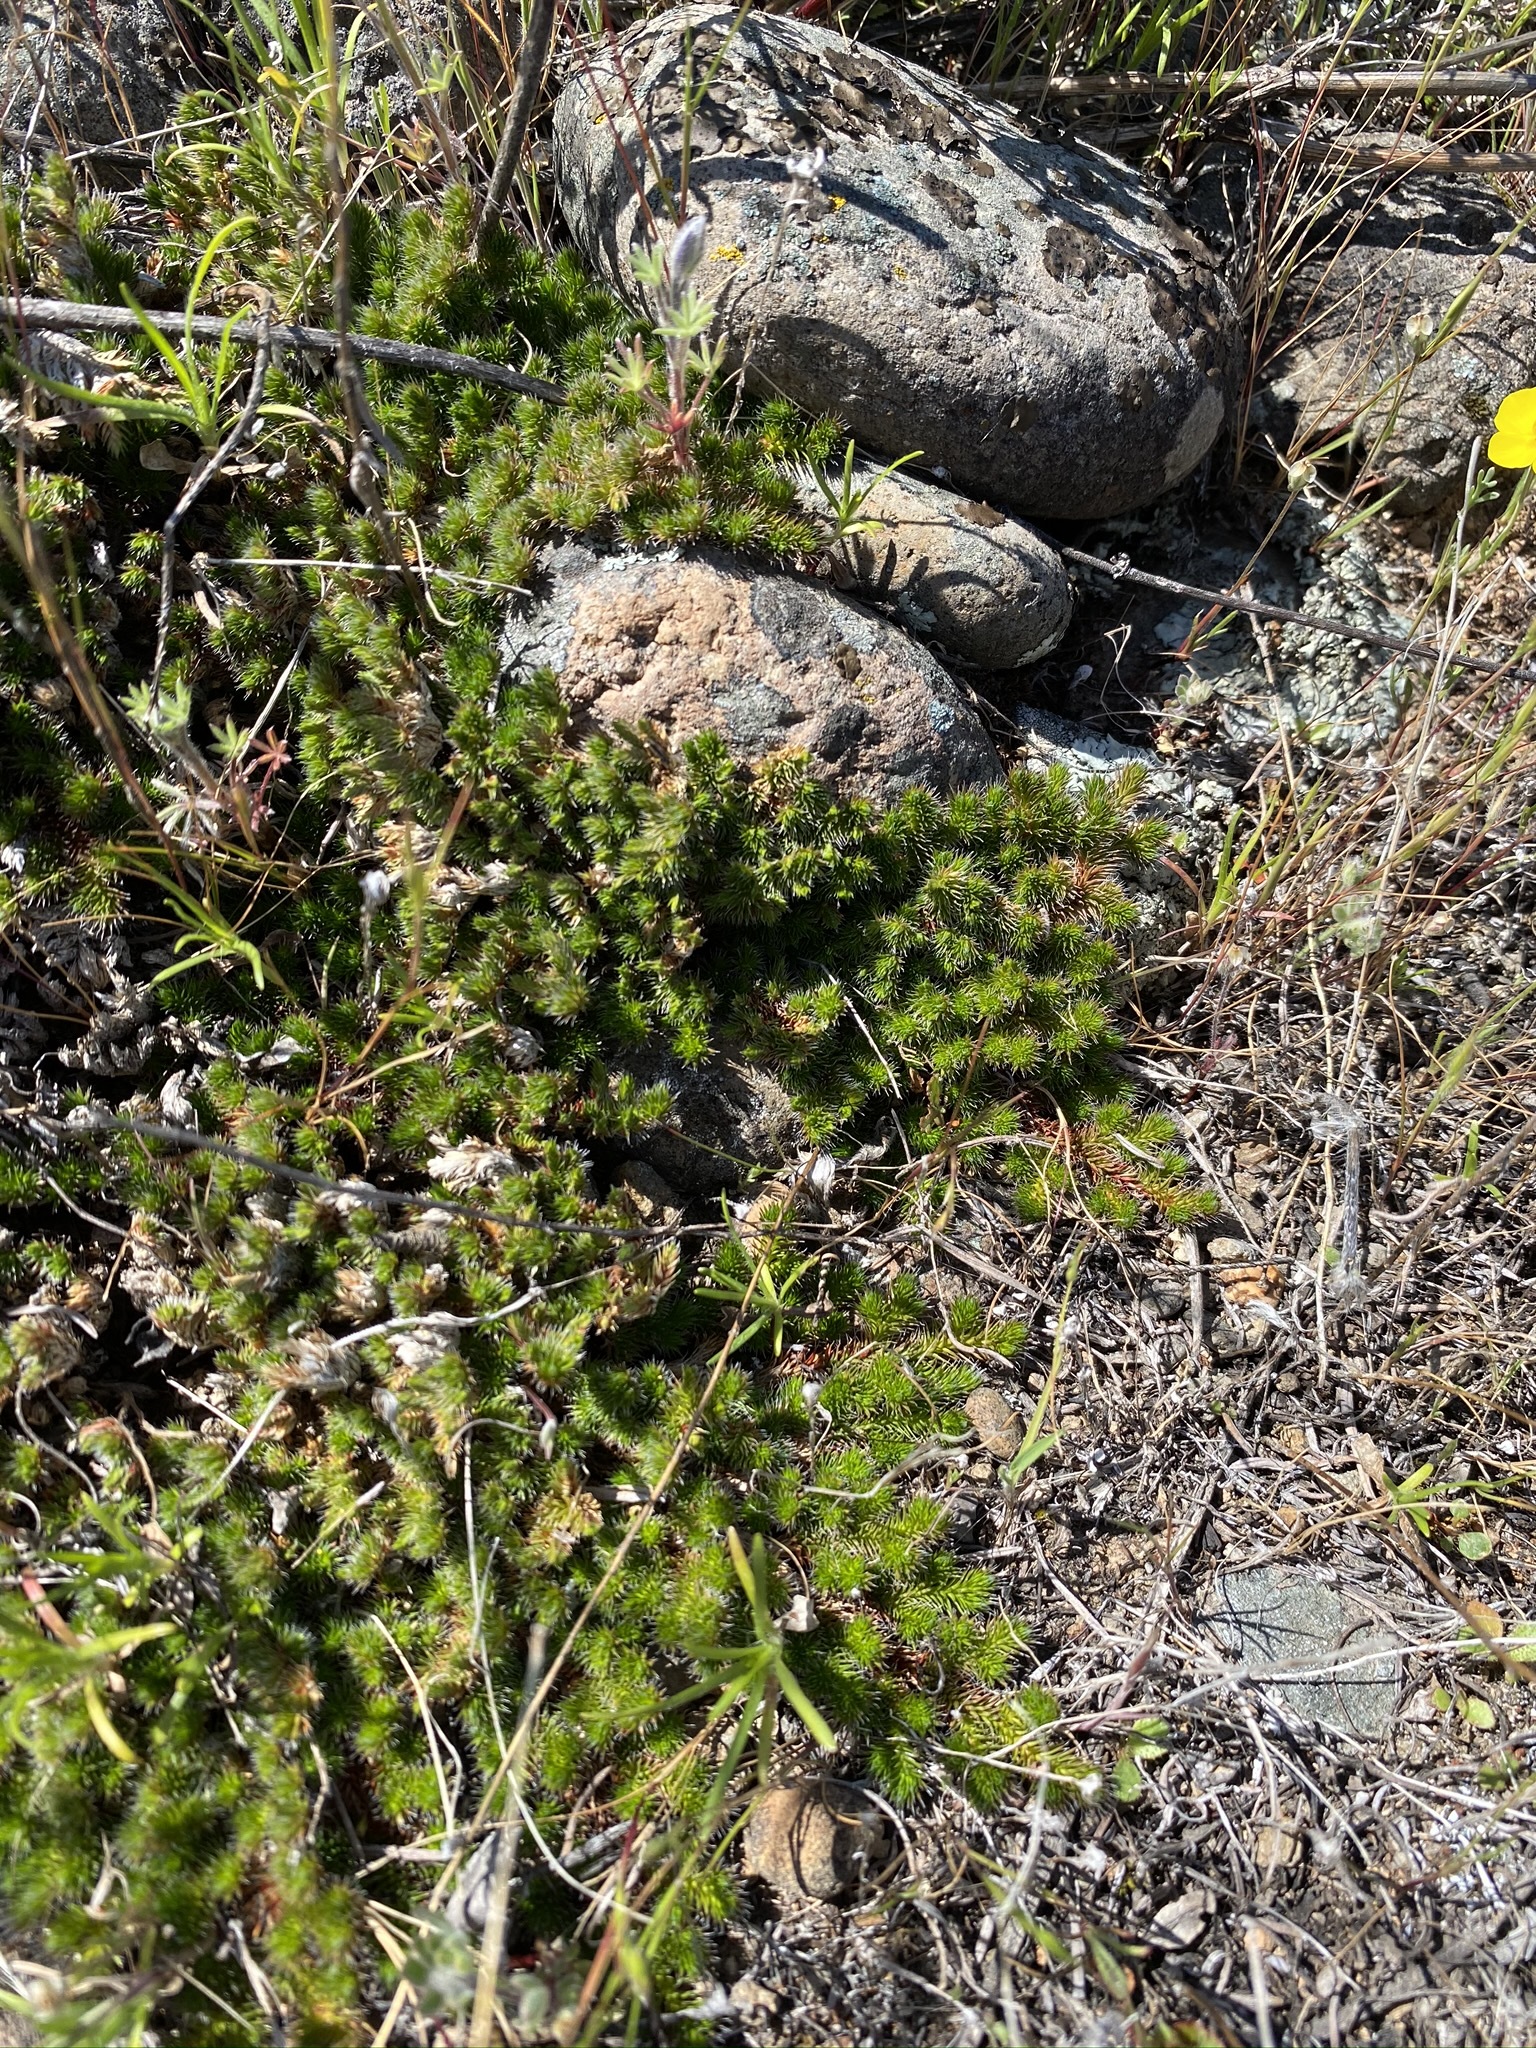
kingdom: Plantae
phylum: Tracheophyta
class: Lycopodiopsida
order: Selaginellales
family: Selaginellaceae
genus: Selaginella
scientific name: Selaginella hansenii
